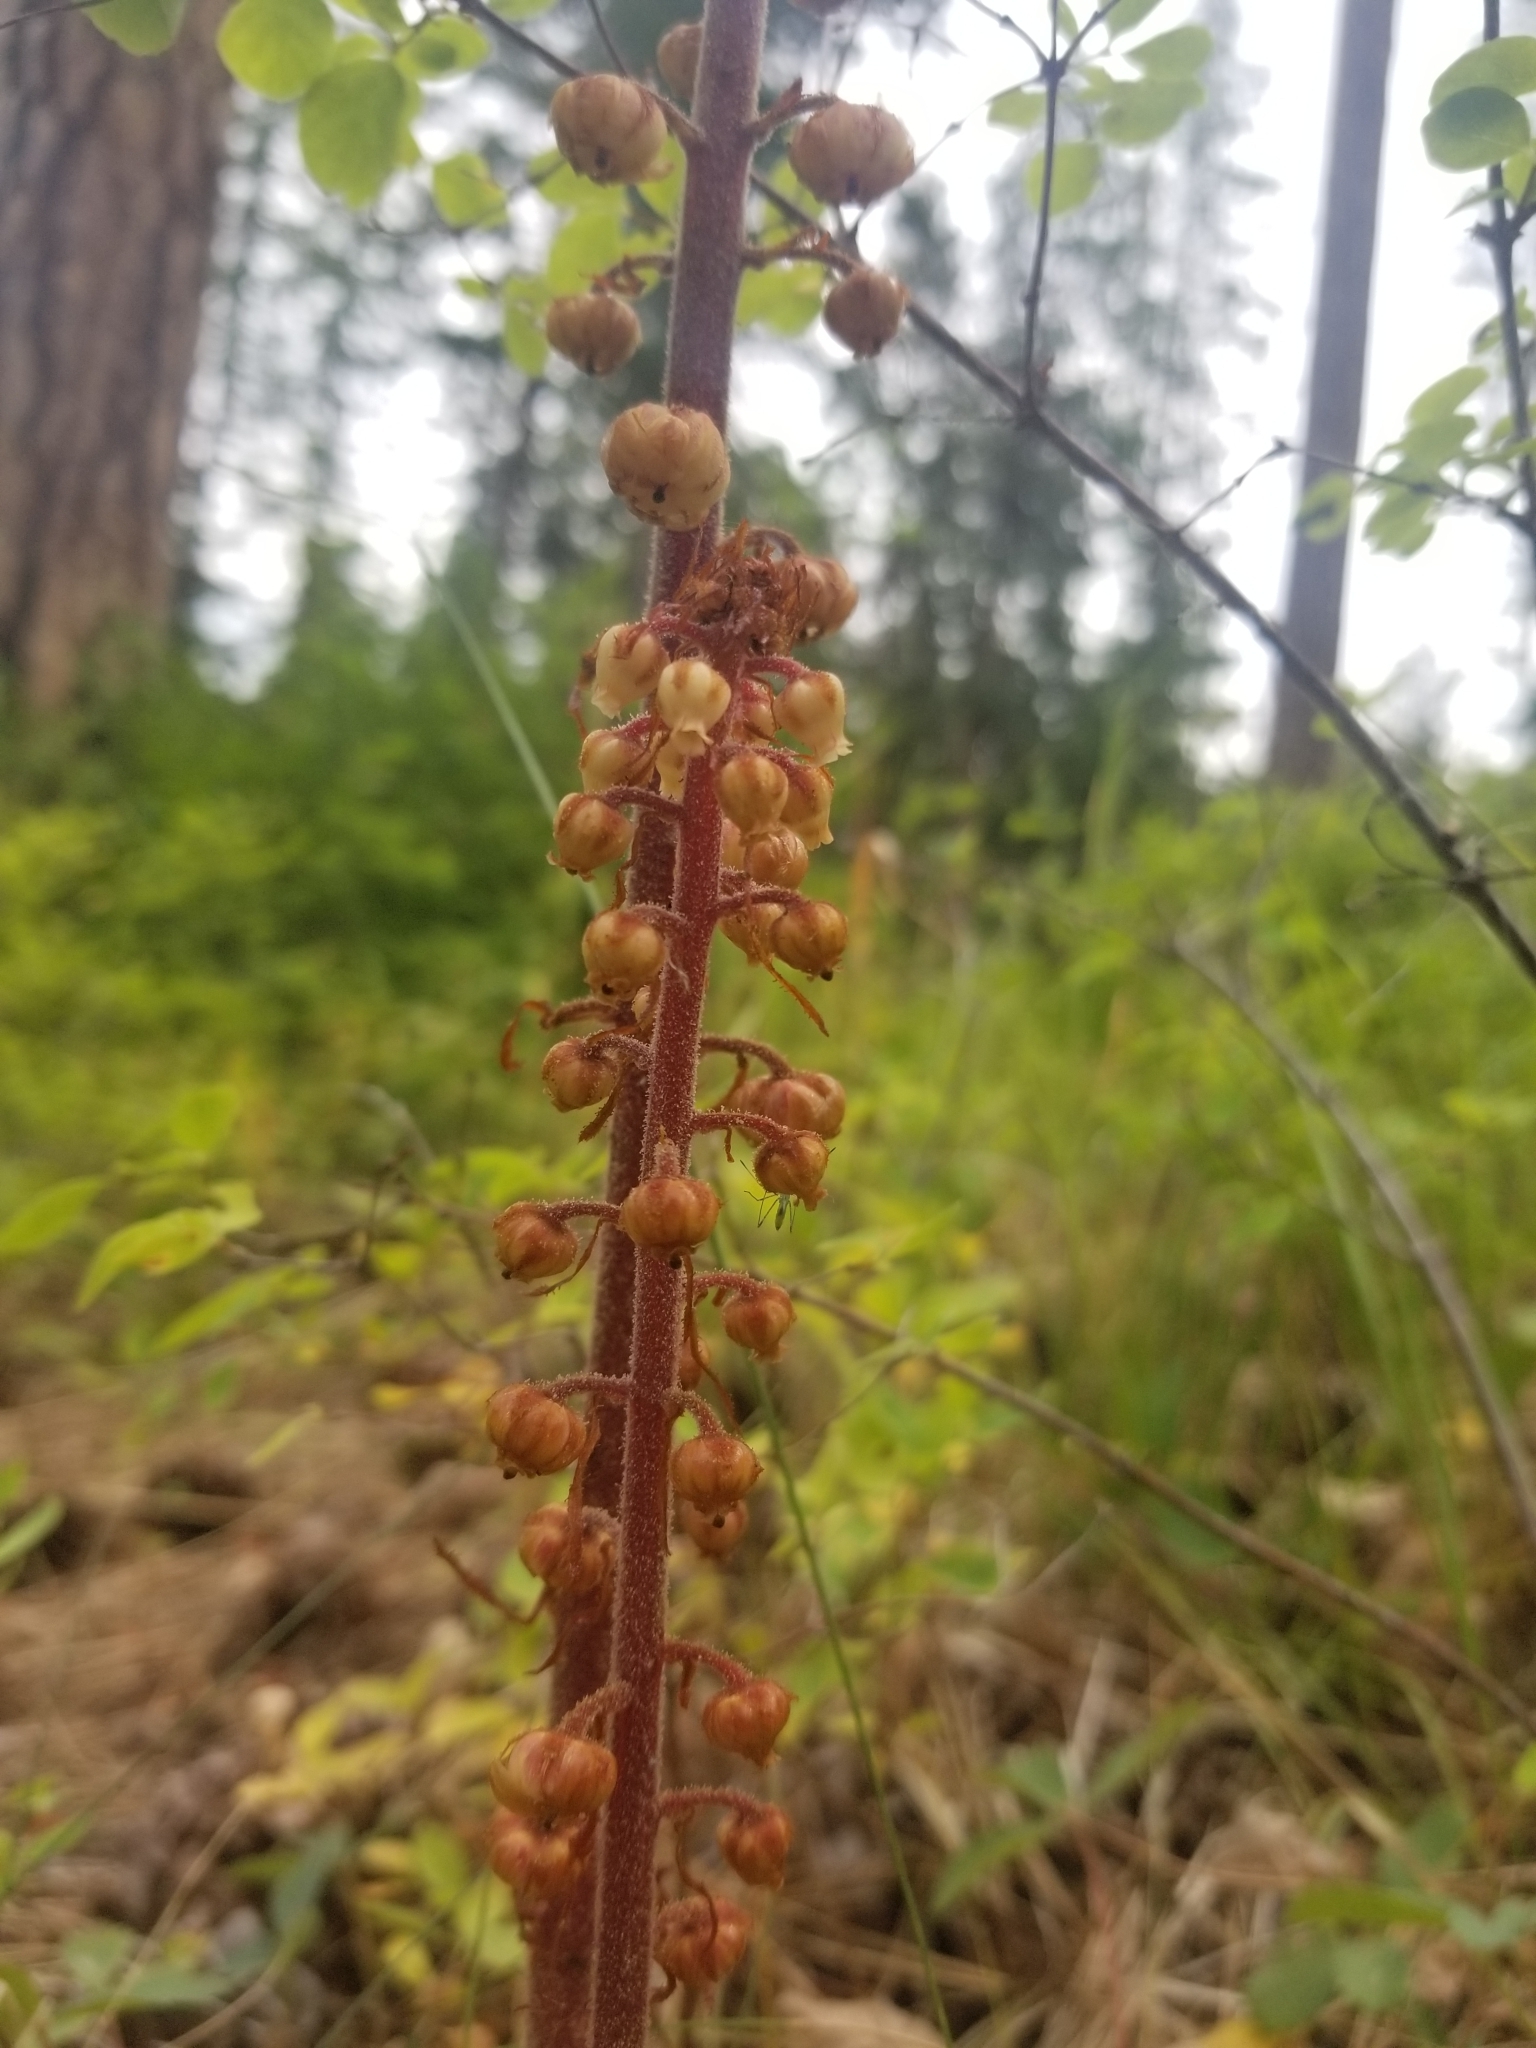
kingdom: Plantae
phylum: Tracheophyta
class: Magnoliopsida
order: Ericales
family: Ericaceae
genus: Pterospora
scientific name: Pterospora andromedea
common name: Giant bird's-nest
